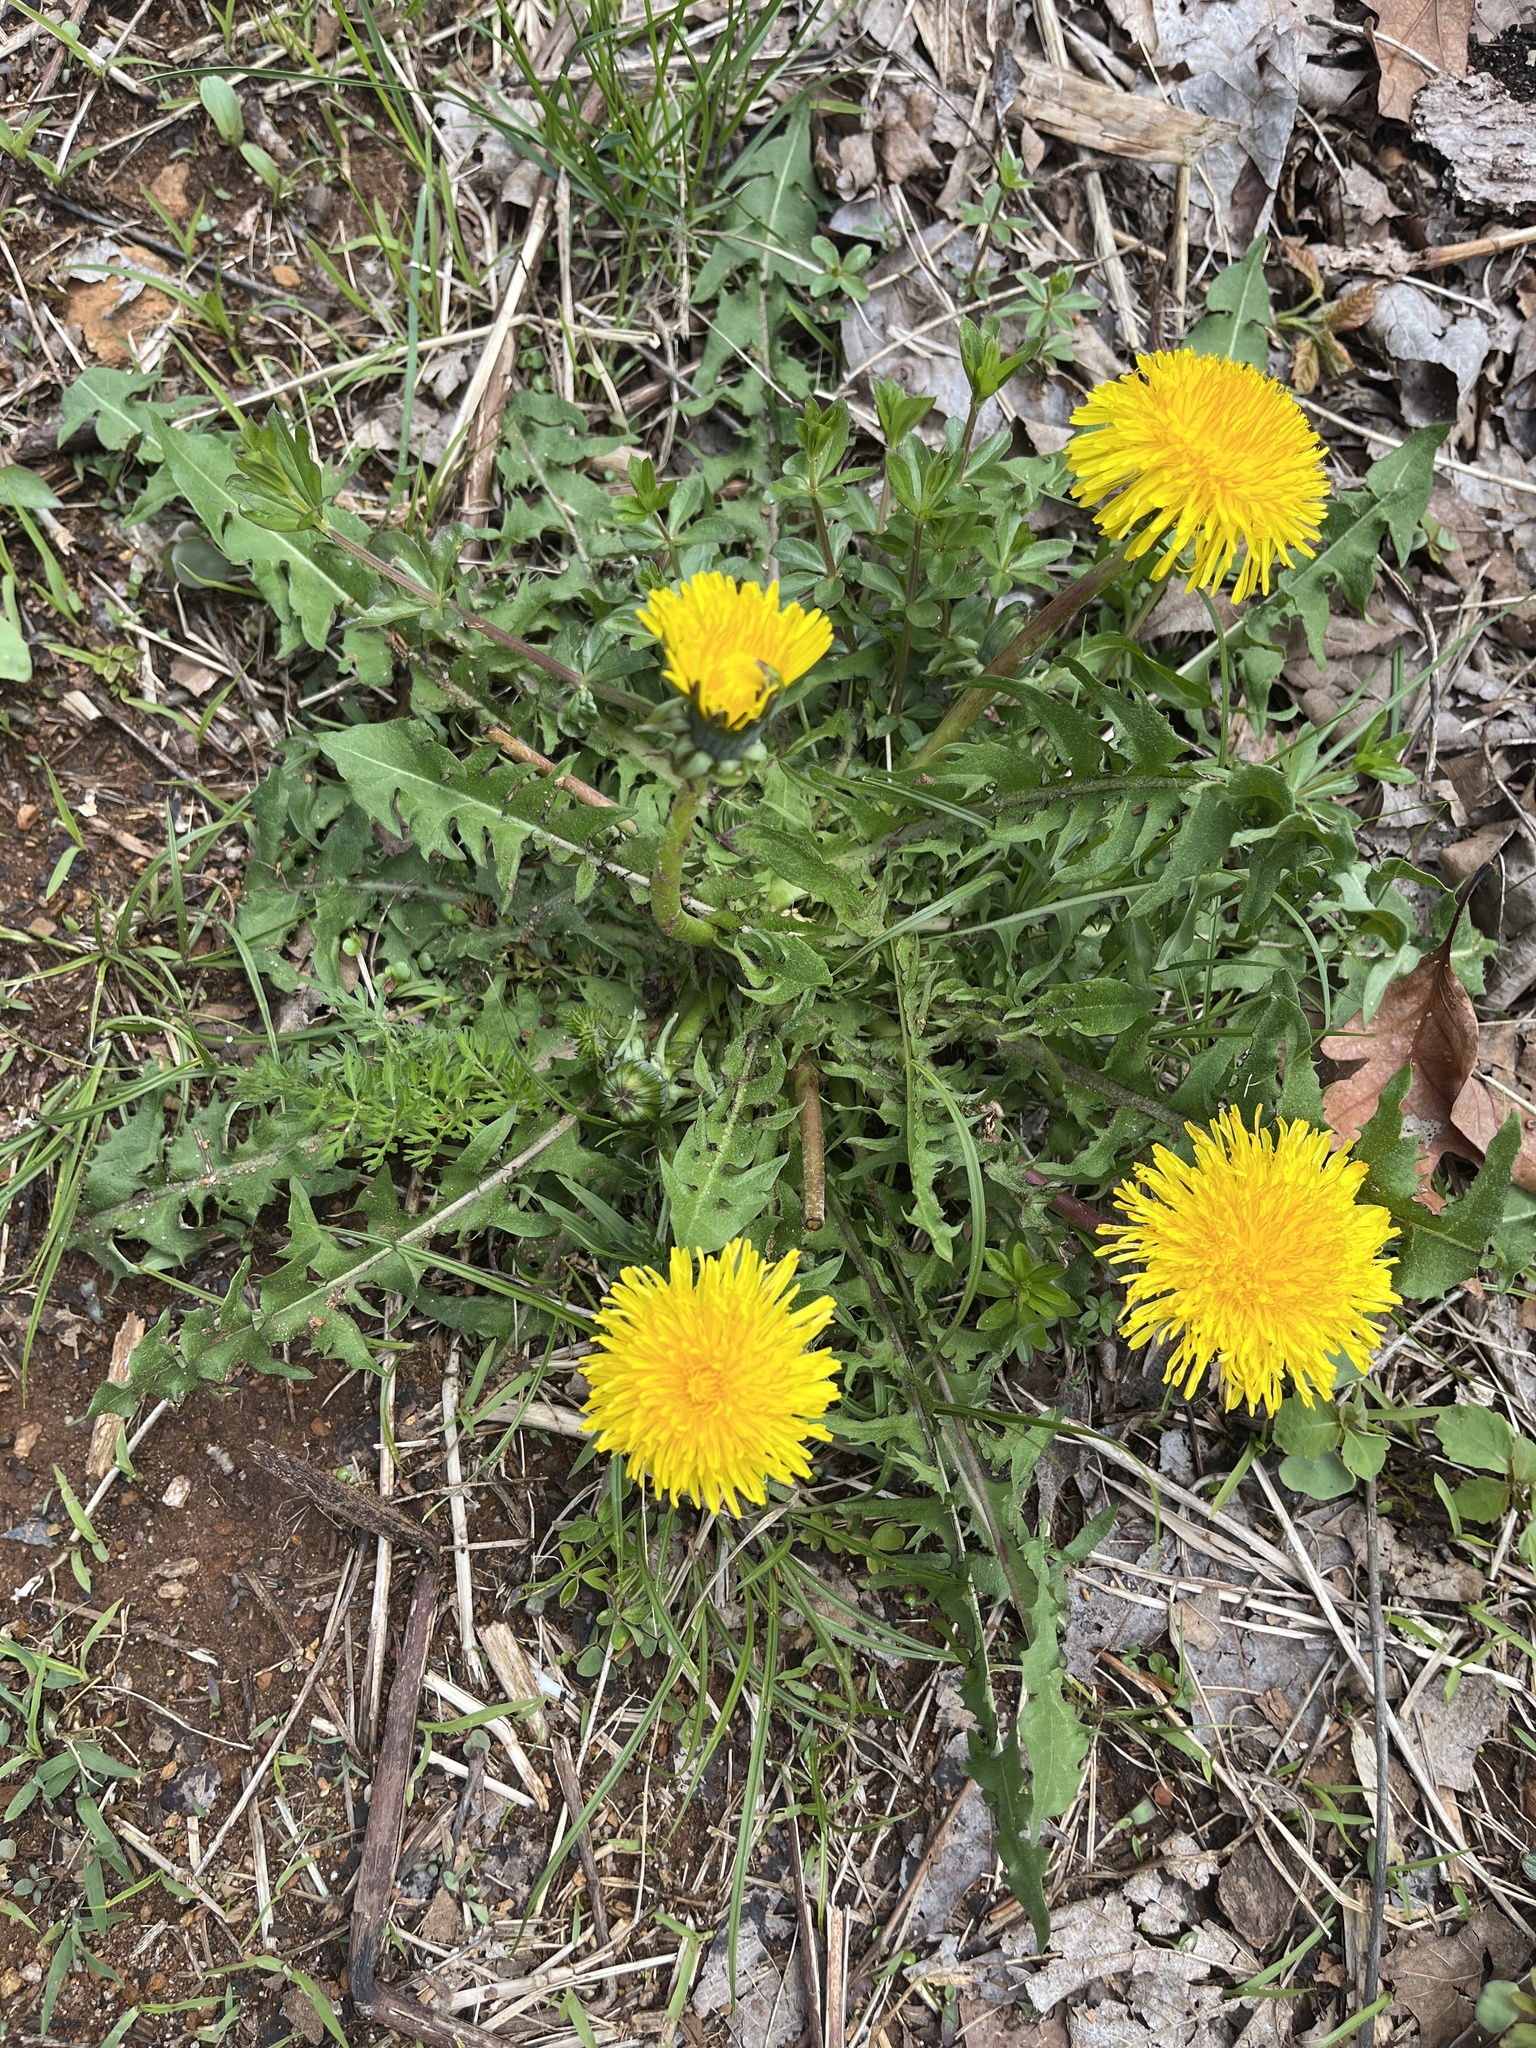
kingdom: Plantae
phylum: Tracheophyta
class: Magnoliopsida
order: Asterales
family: Asteraceae
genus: Taraxacum
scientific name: Taraxacum officinale
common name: Common dandelion
